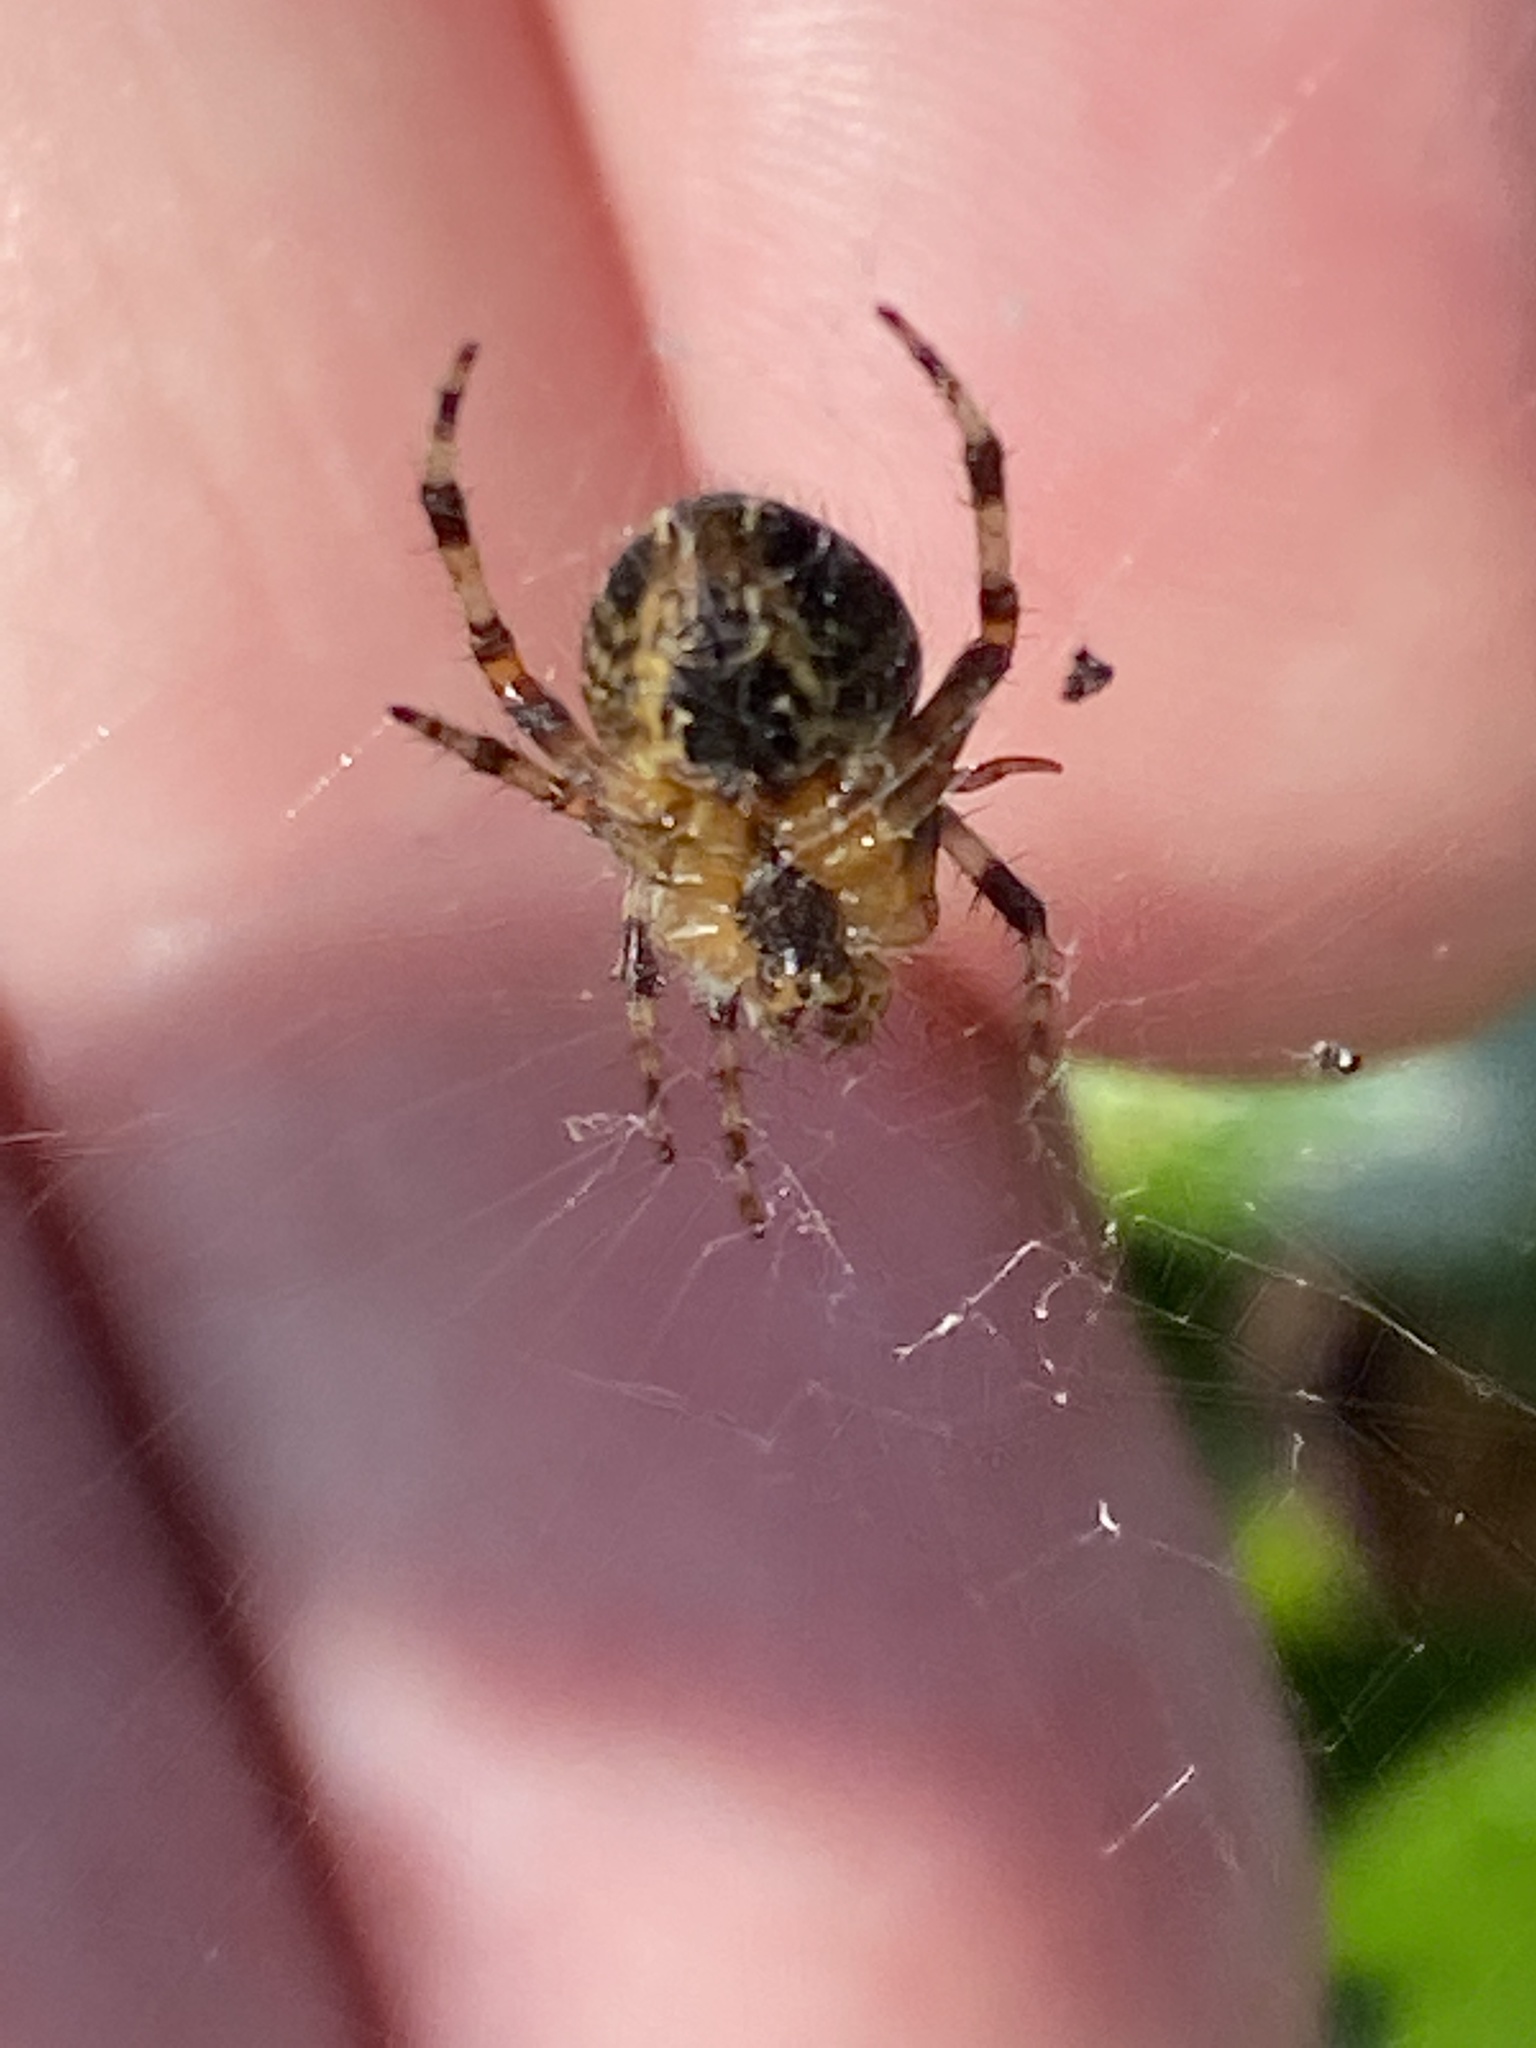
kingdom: Animalia
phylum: Arthropoda
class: Arachnida
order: Araneae
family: Araneidae
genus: Araneus
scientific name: Araneus diadematus
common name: Cross orbweaver
